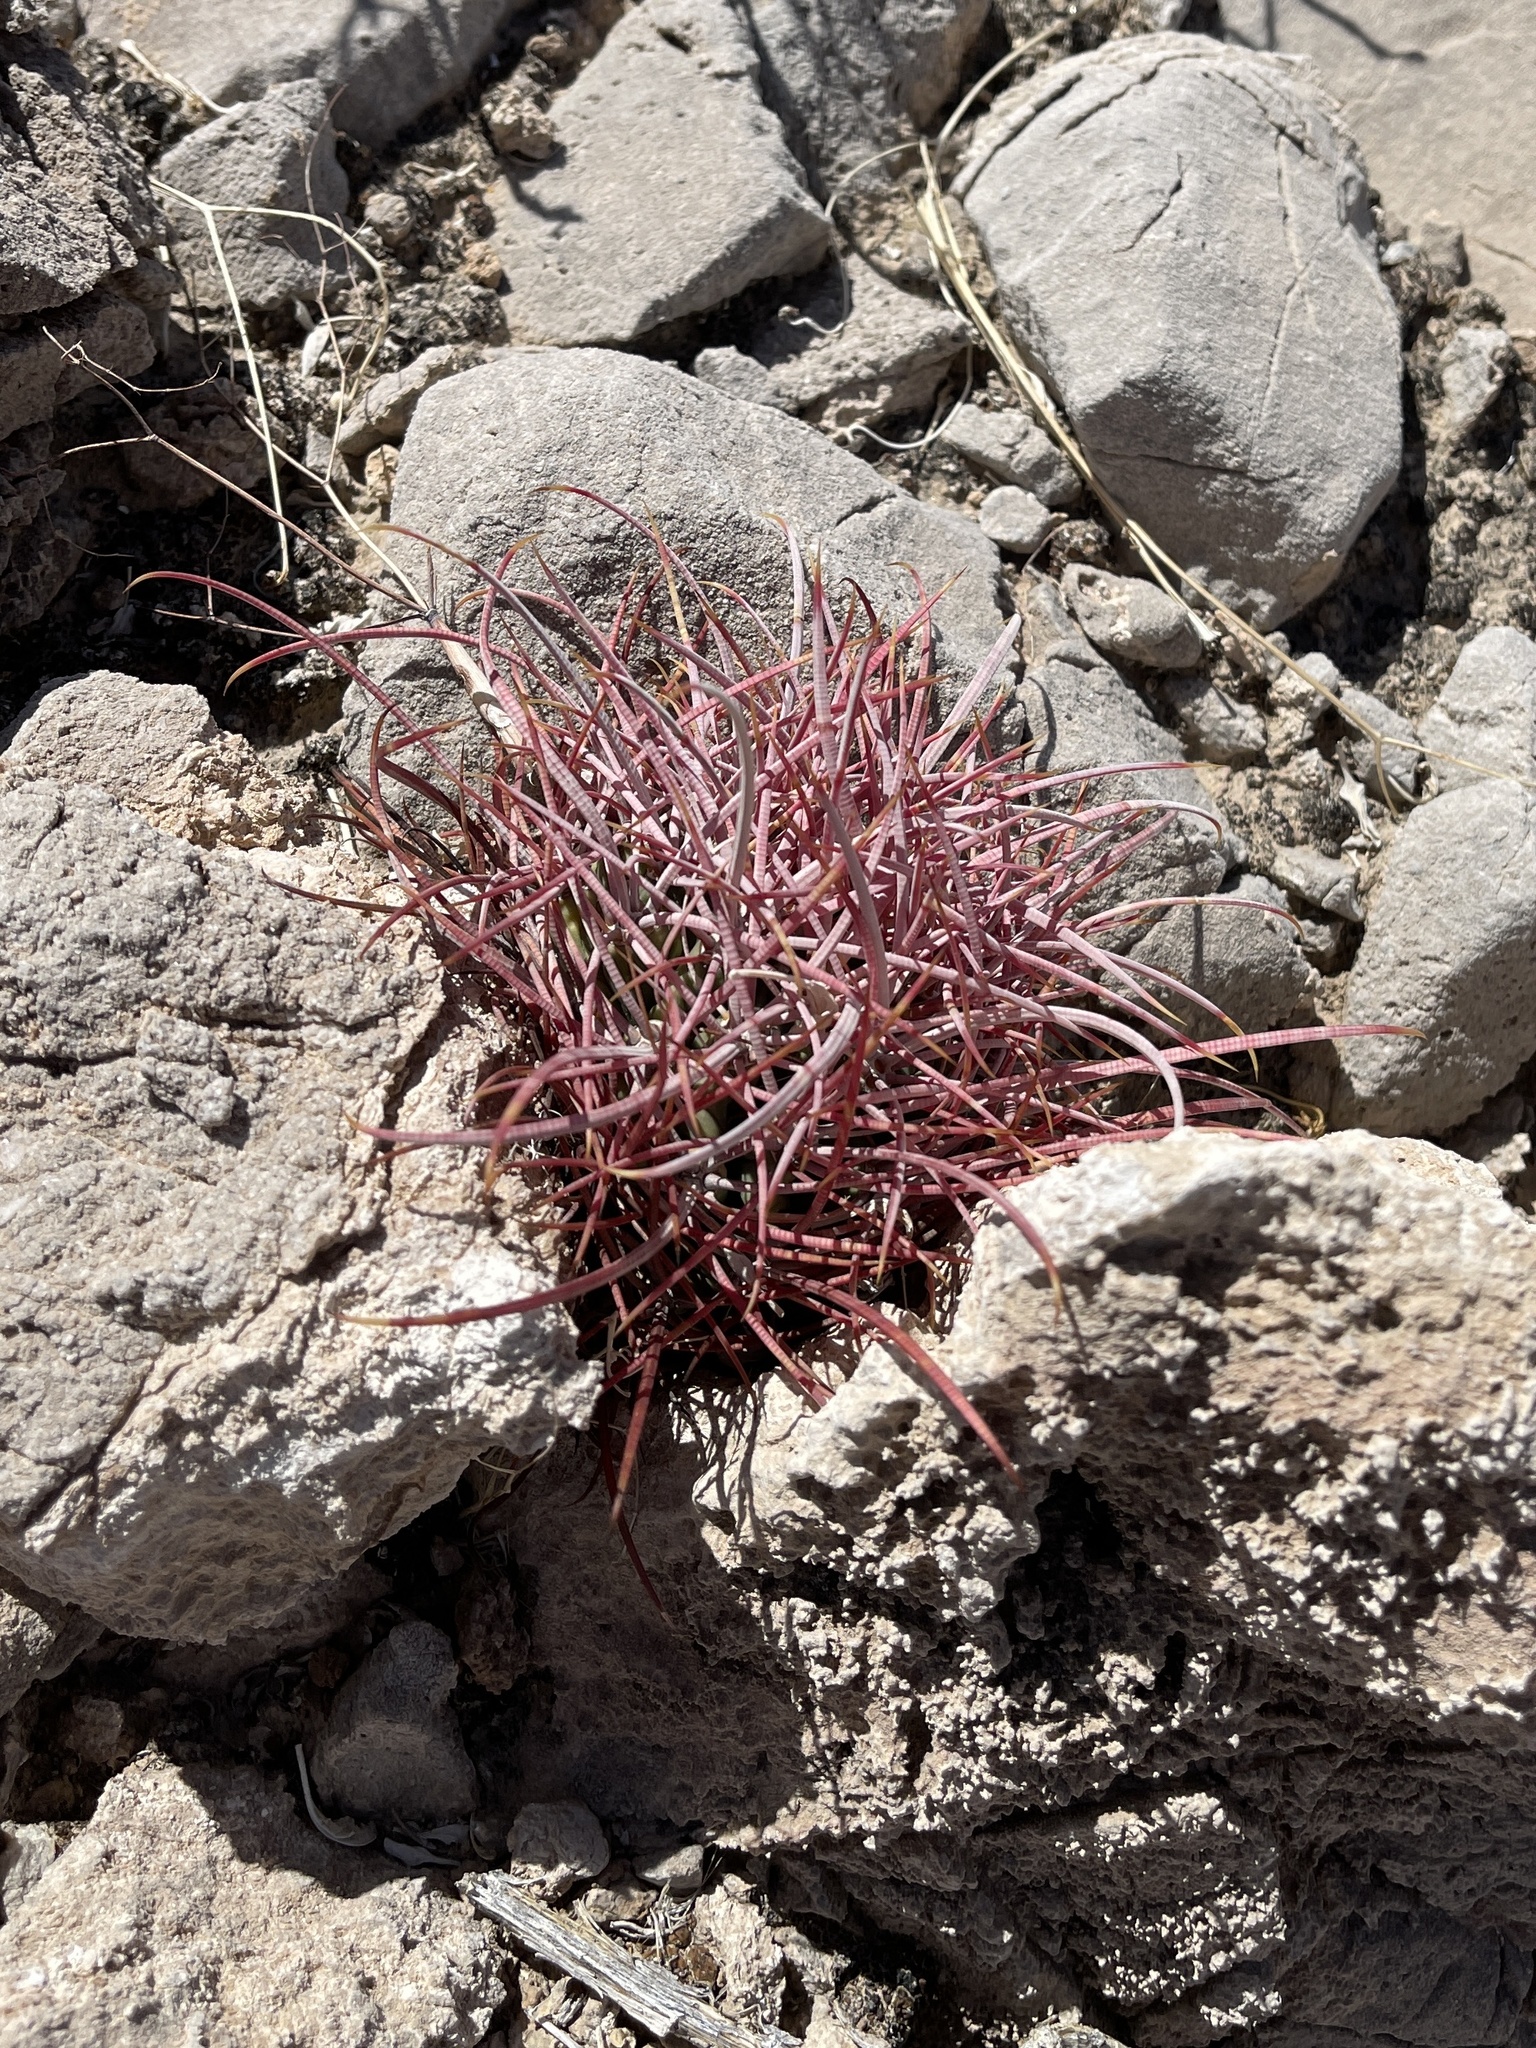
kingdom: Plantae
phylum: Tracheophyta
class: Magnoliopsida
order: Caryophyllales
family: Cactaceae
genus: Ferocactus
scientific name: Ferocactus cylindraceus
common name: California barrel cactus
